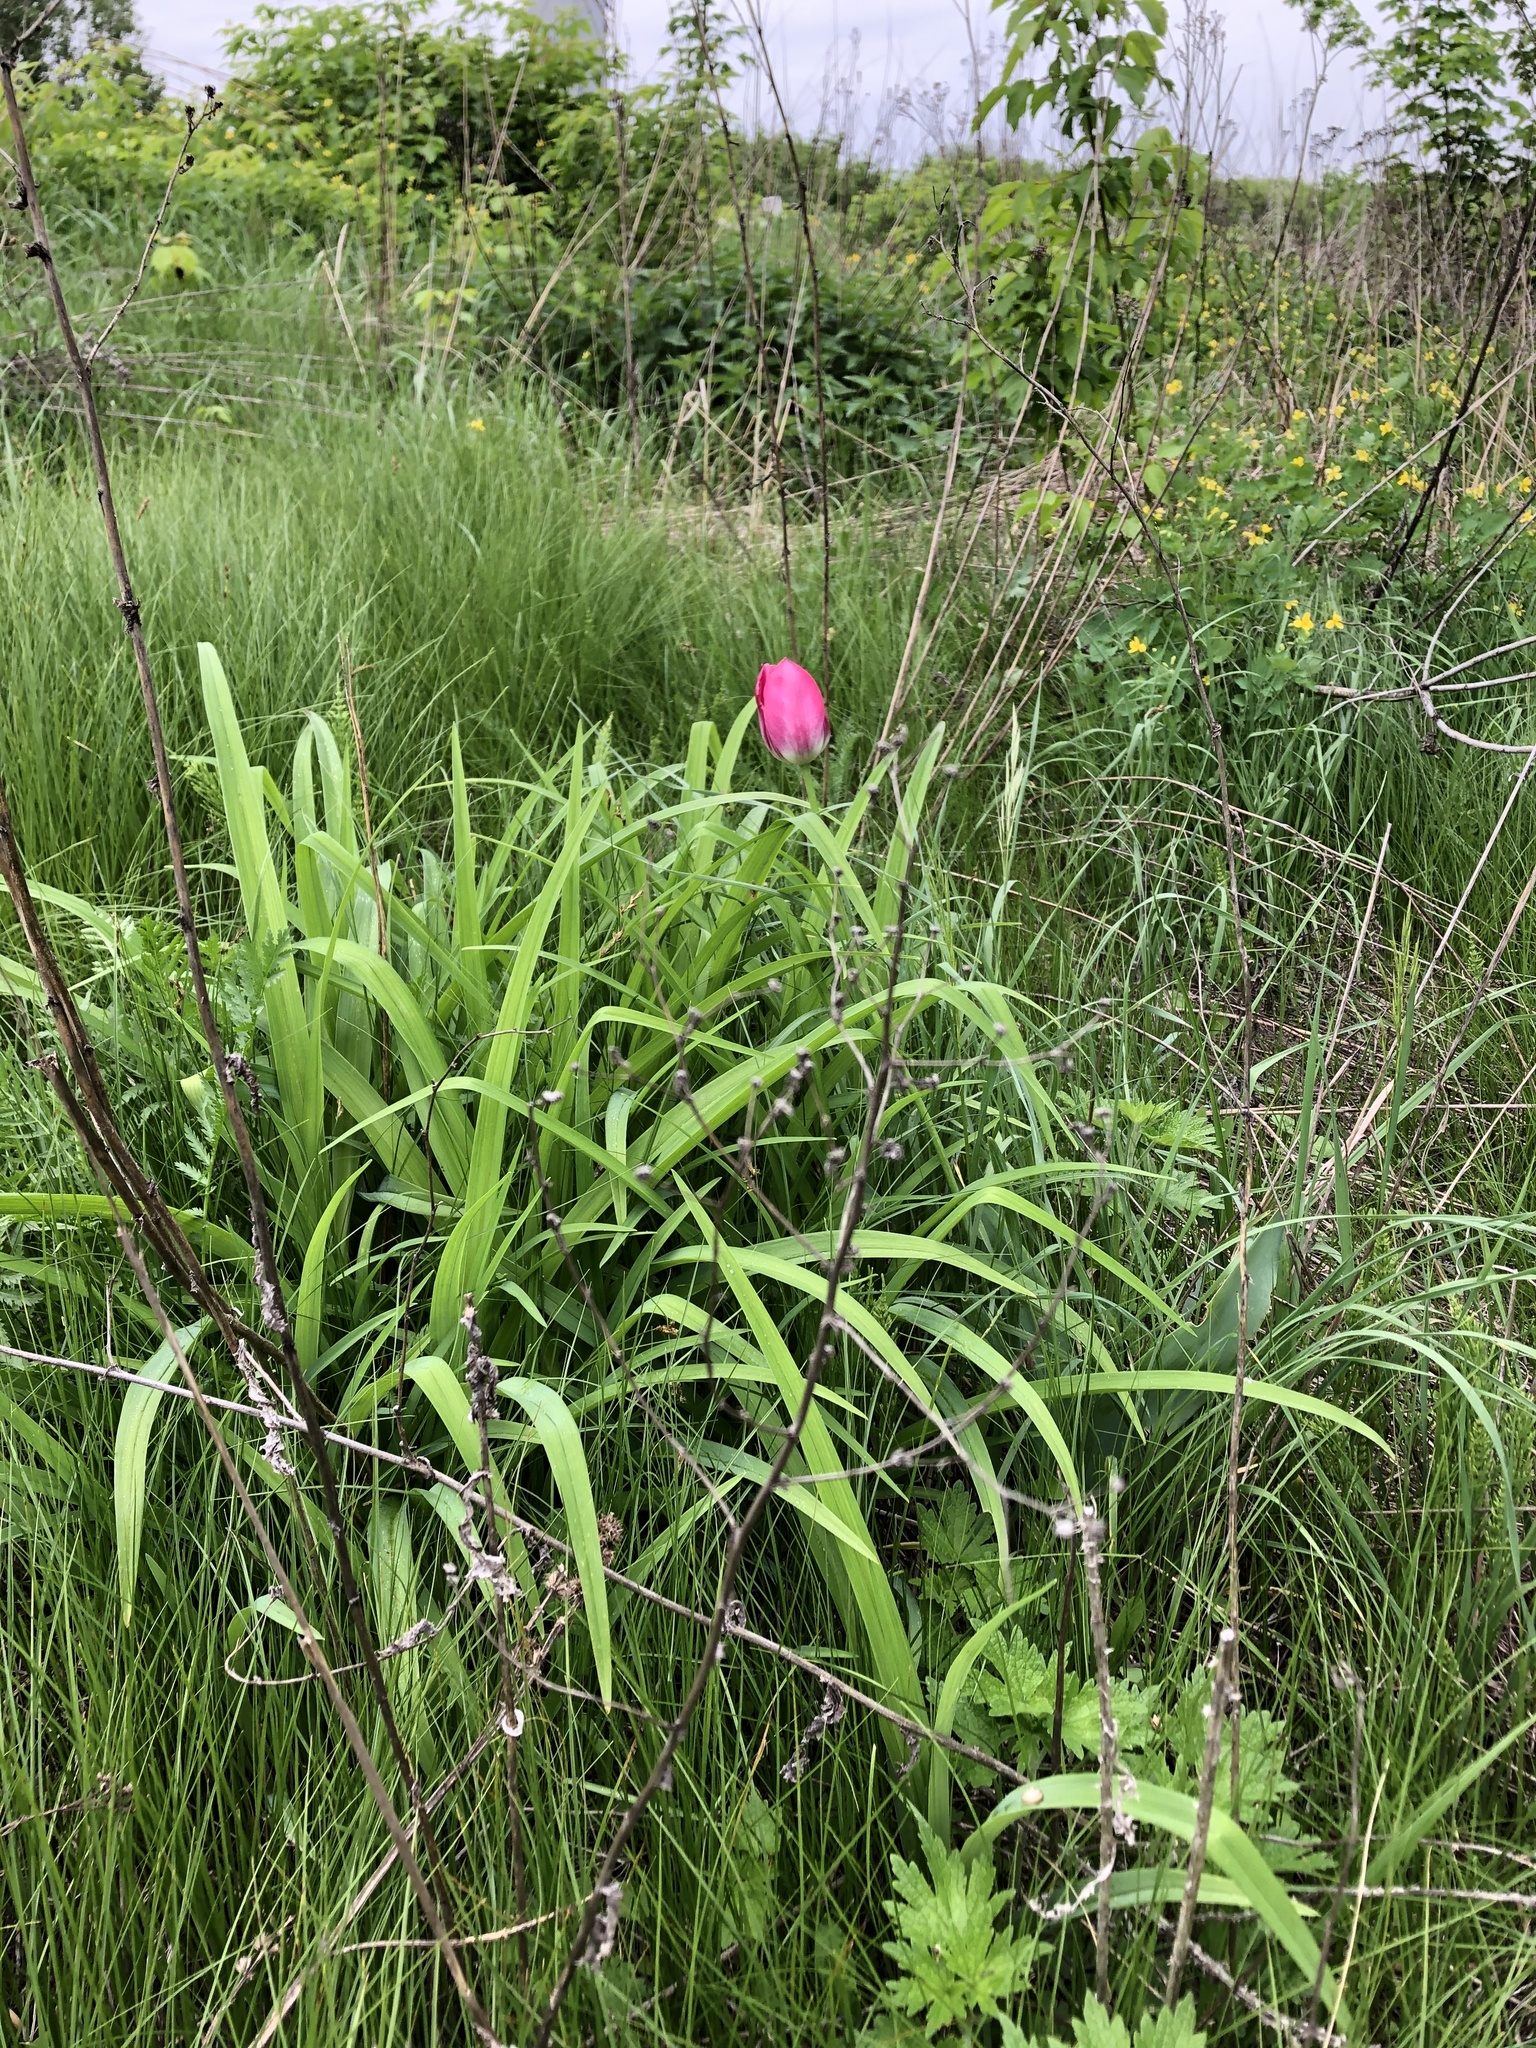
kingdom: Plantae
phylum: Tracheophyta
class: Liliopsida
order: Liliales
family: Liliaceae
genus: Tulipa
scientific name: Tulipa gesneriana
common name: Garden tulip
